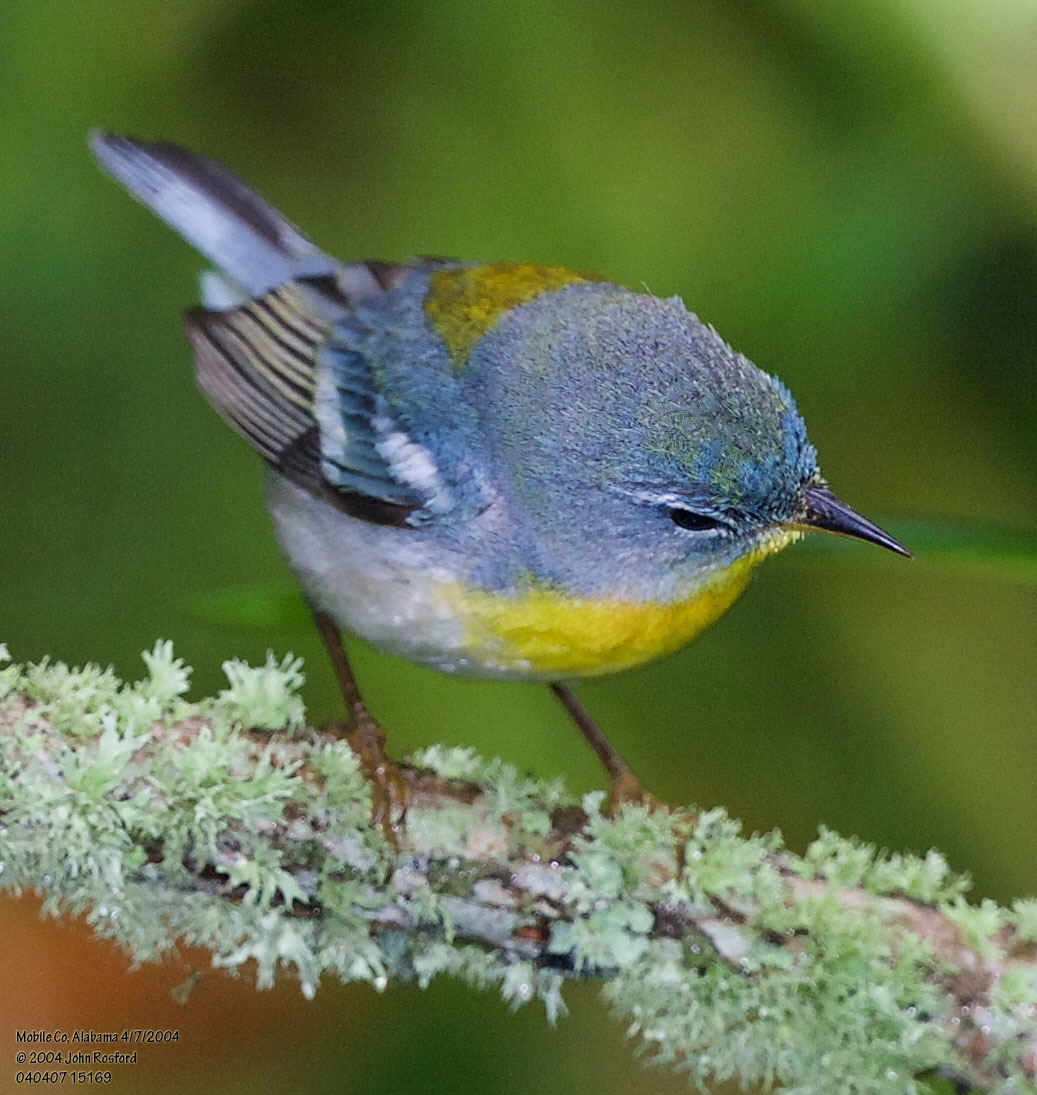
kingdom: Animalia
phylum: Chordata
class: Aves
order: Passeriformes
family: Parulidae
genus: Setophaga
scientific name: Setophaga americana
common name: Northern parula
